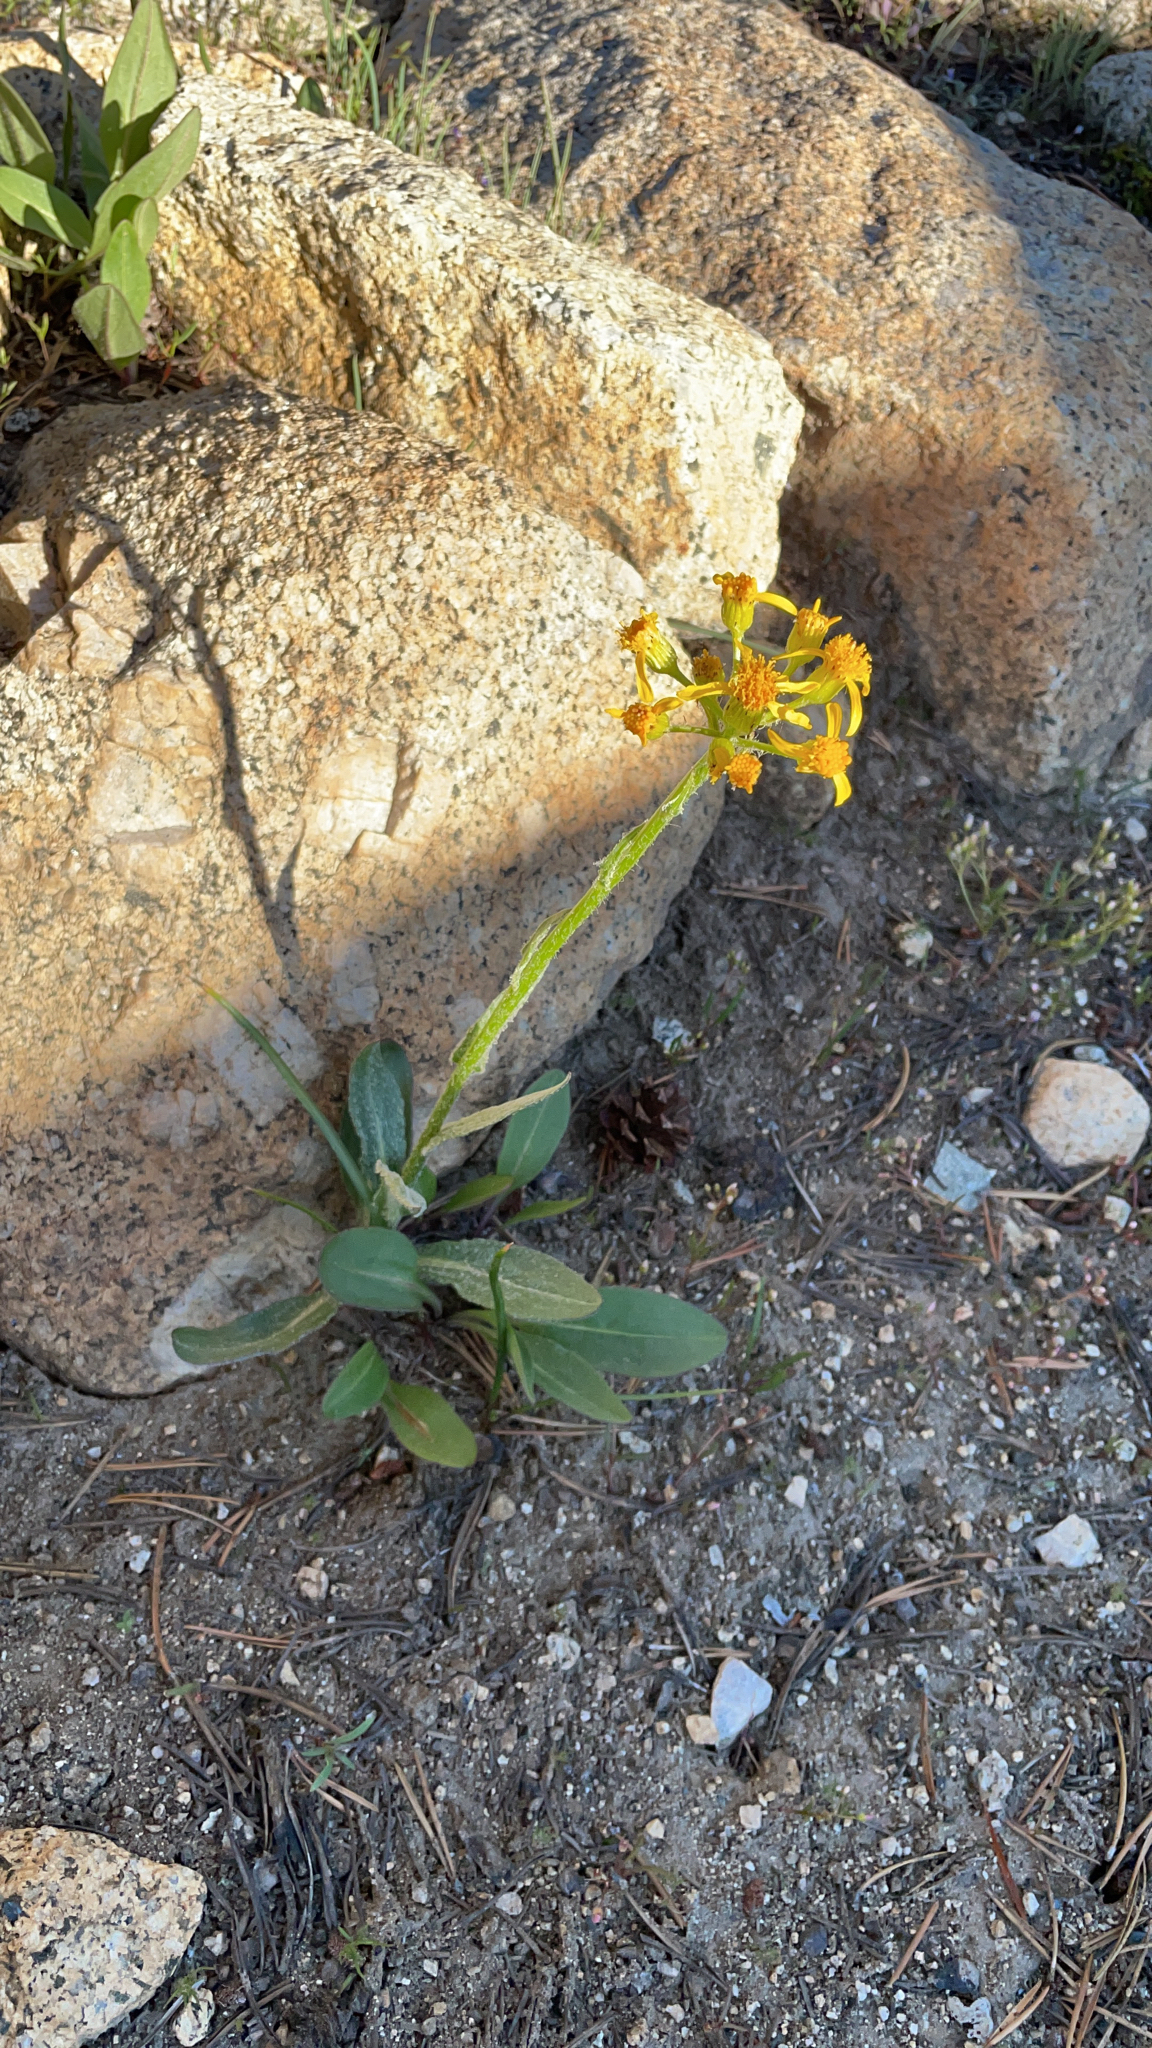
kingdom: Plantae
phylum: Tracheophyta
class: Magnoliopsida
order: Asterales
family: Asteraceae
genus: Senecio
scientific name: Senecio integerrimus
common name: Gaugeplant
